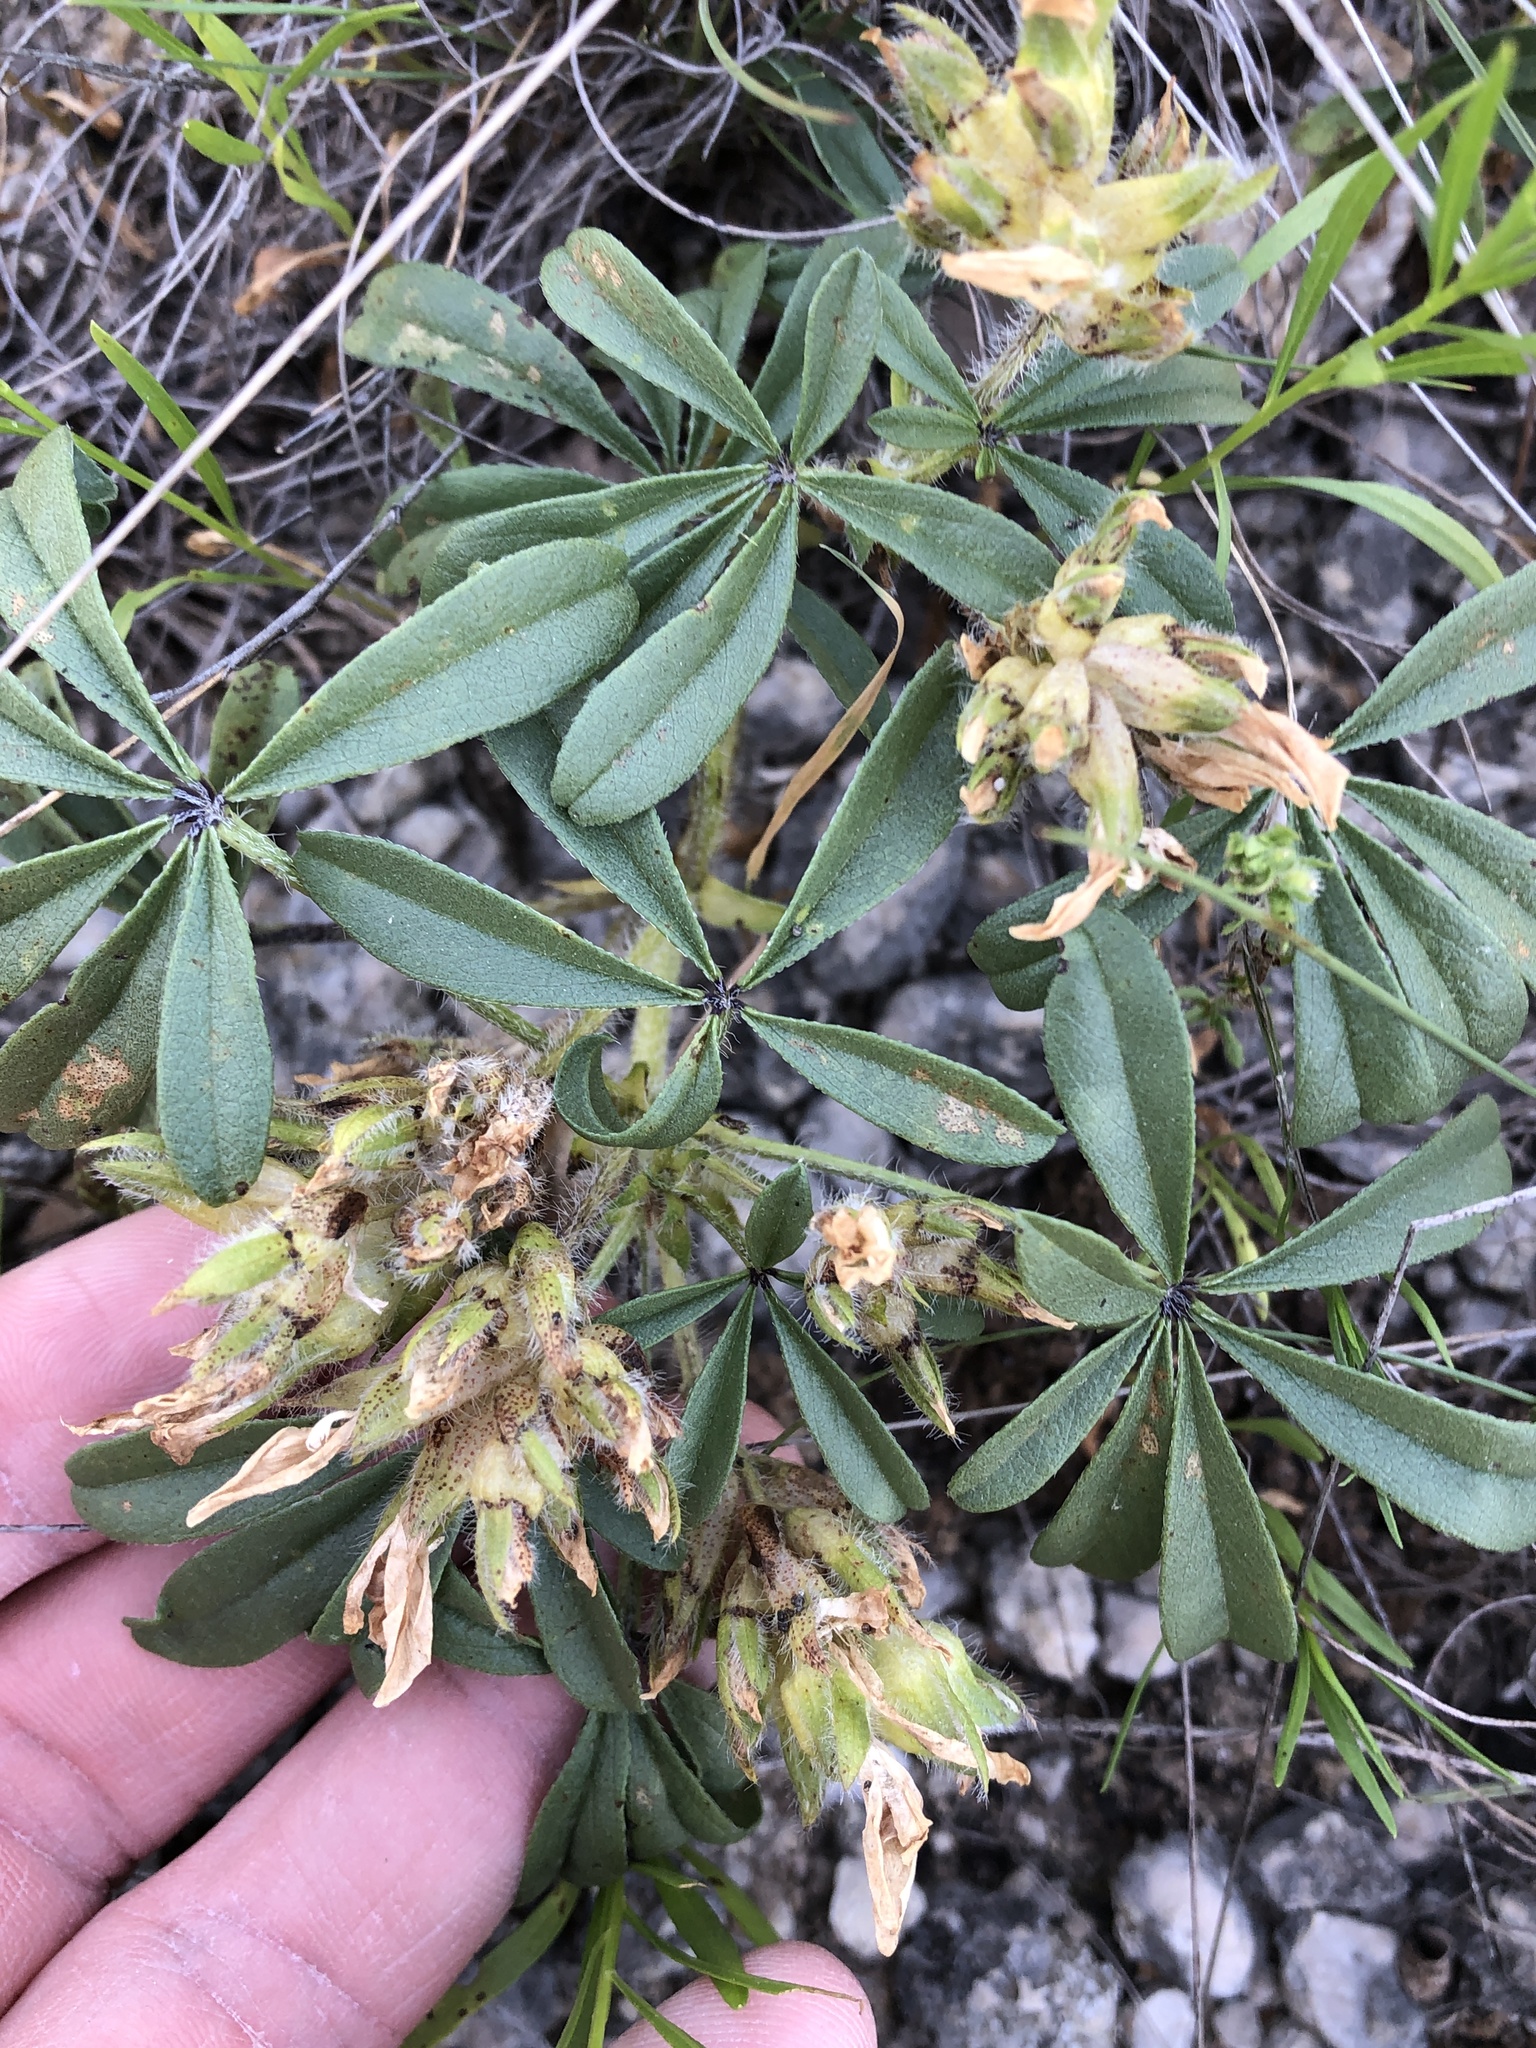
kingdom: Plantae
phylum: Tracheophyta
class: Magnoliopsida
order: Fabales
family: Fabaceae
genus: Pediomelum
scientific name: Pediomelum cuspidatum
